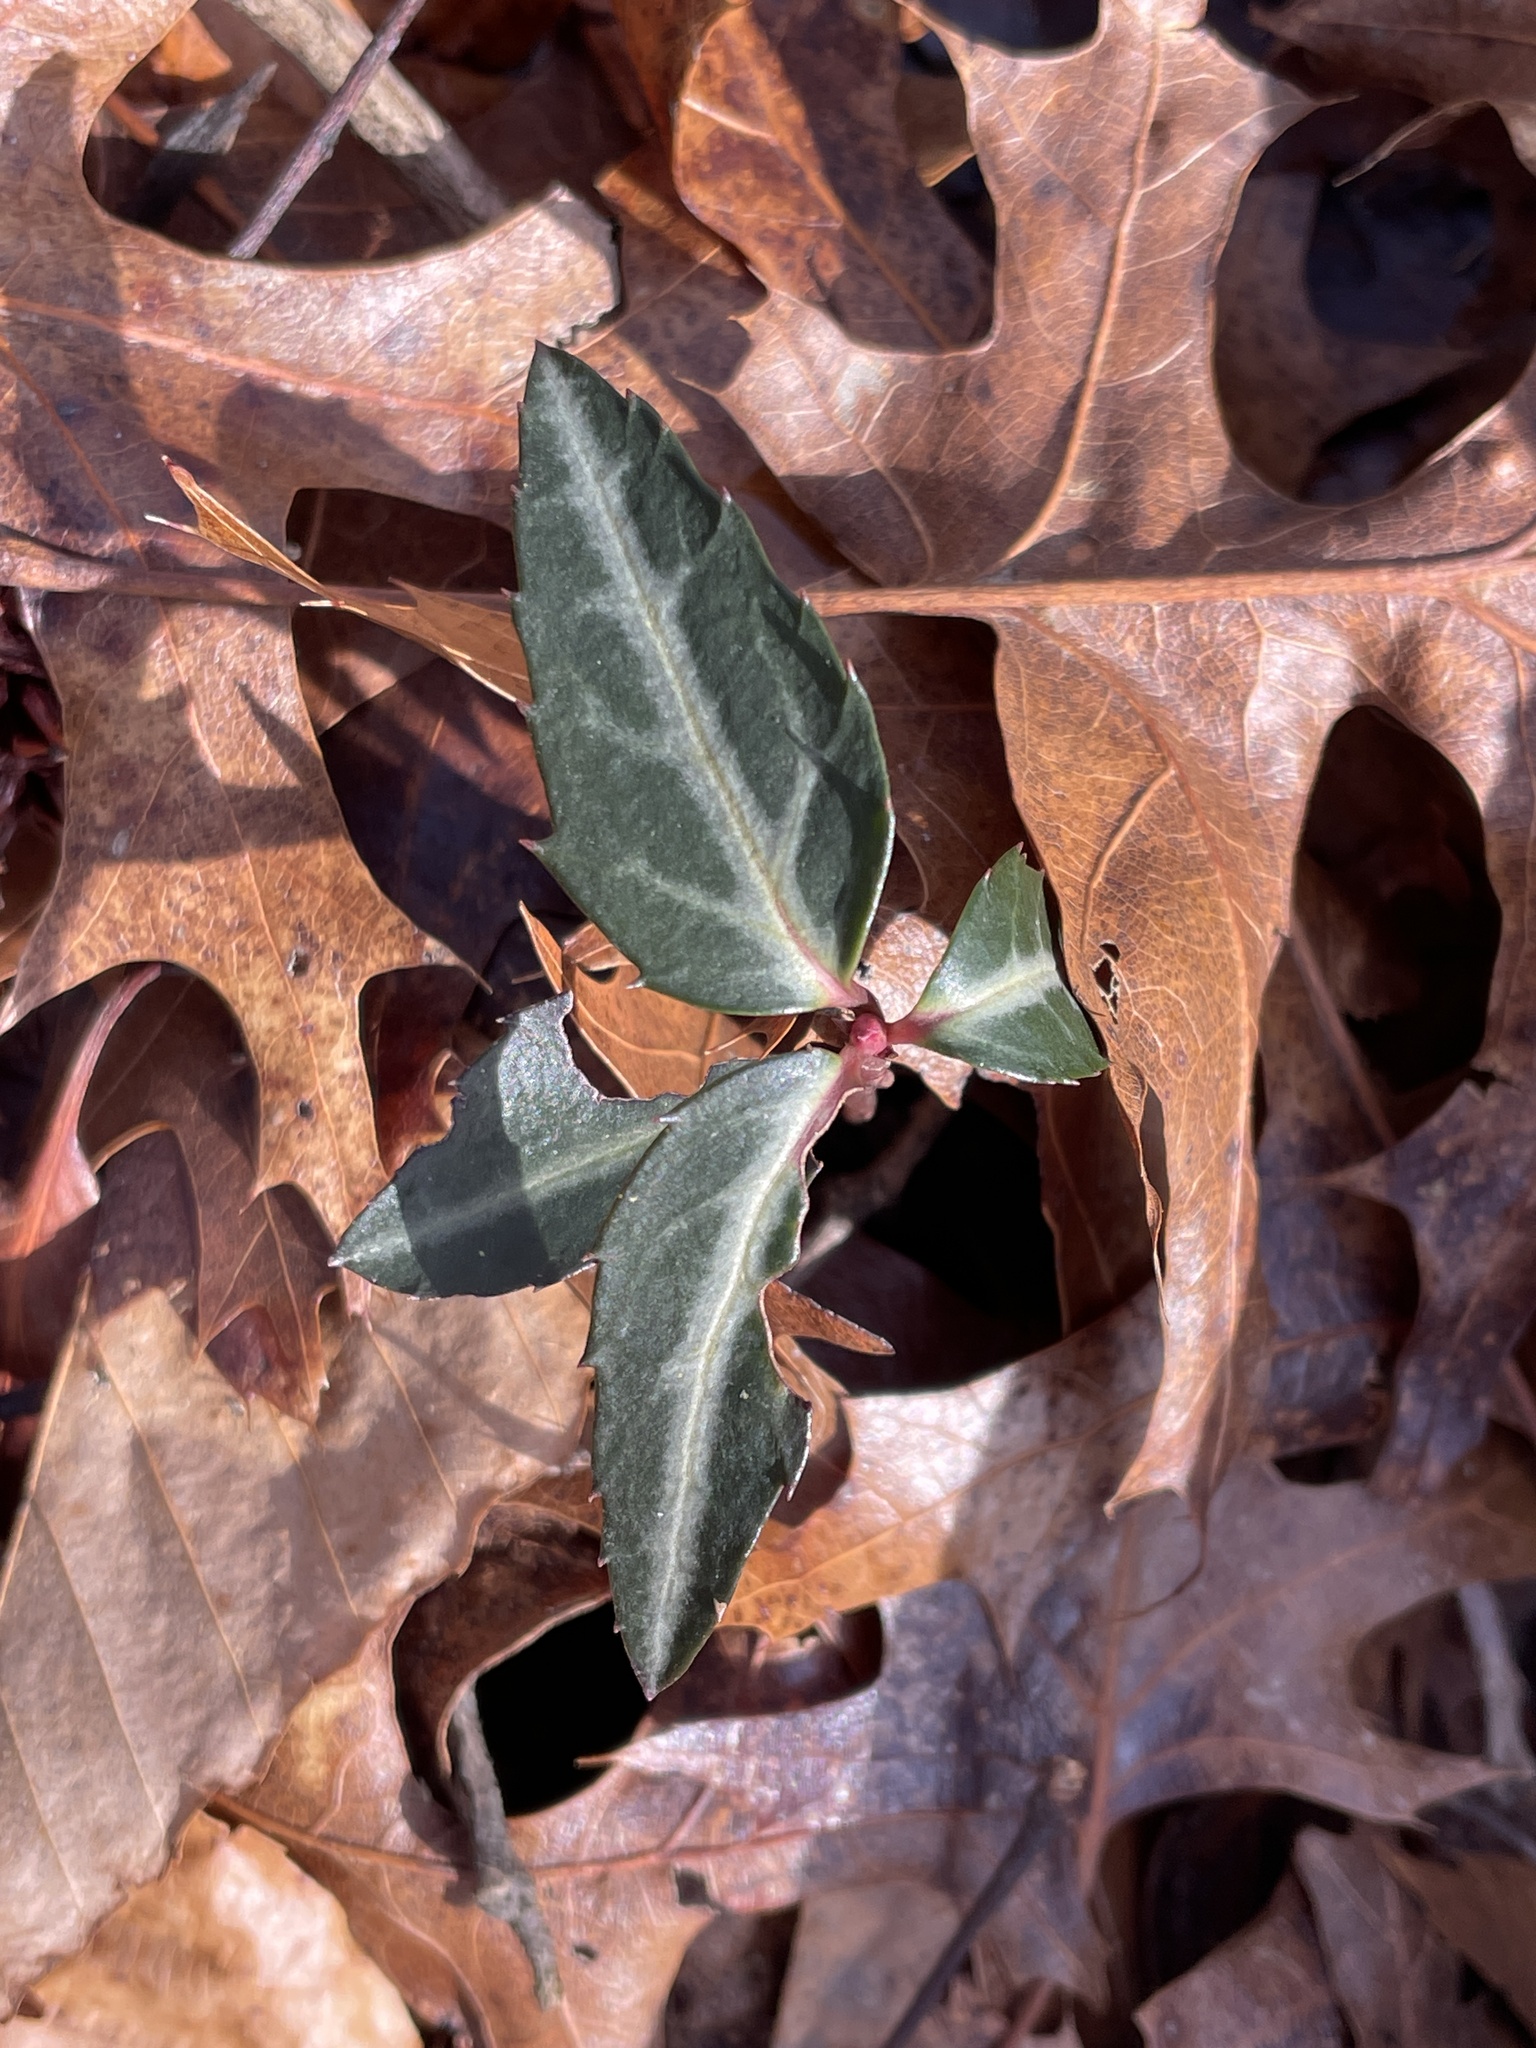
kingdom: Plantae
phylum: Tracheophyta
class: Magnoliopsida
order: Ericales
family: Ericaceae
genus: Chimaphila
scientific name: Chimaphila maculata
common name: Spotted pipsissewa
